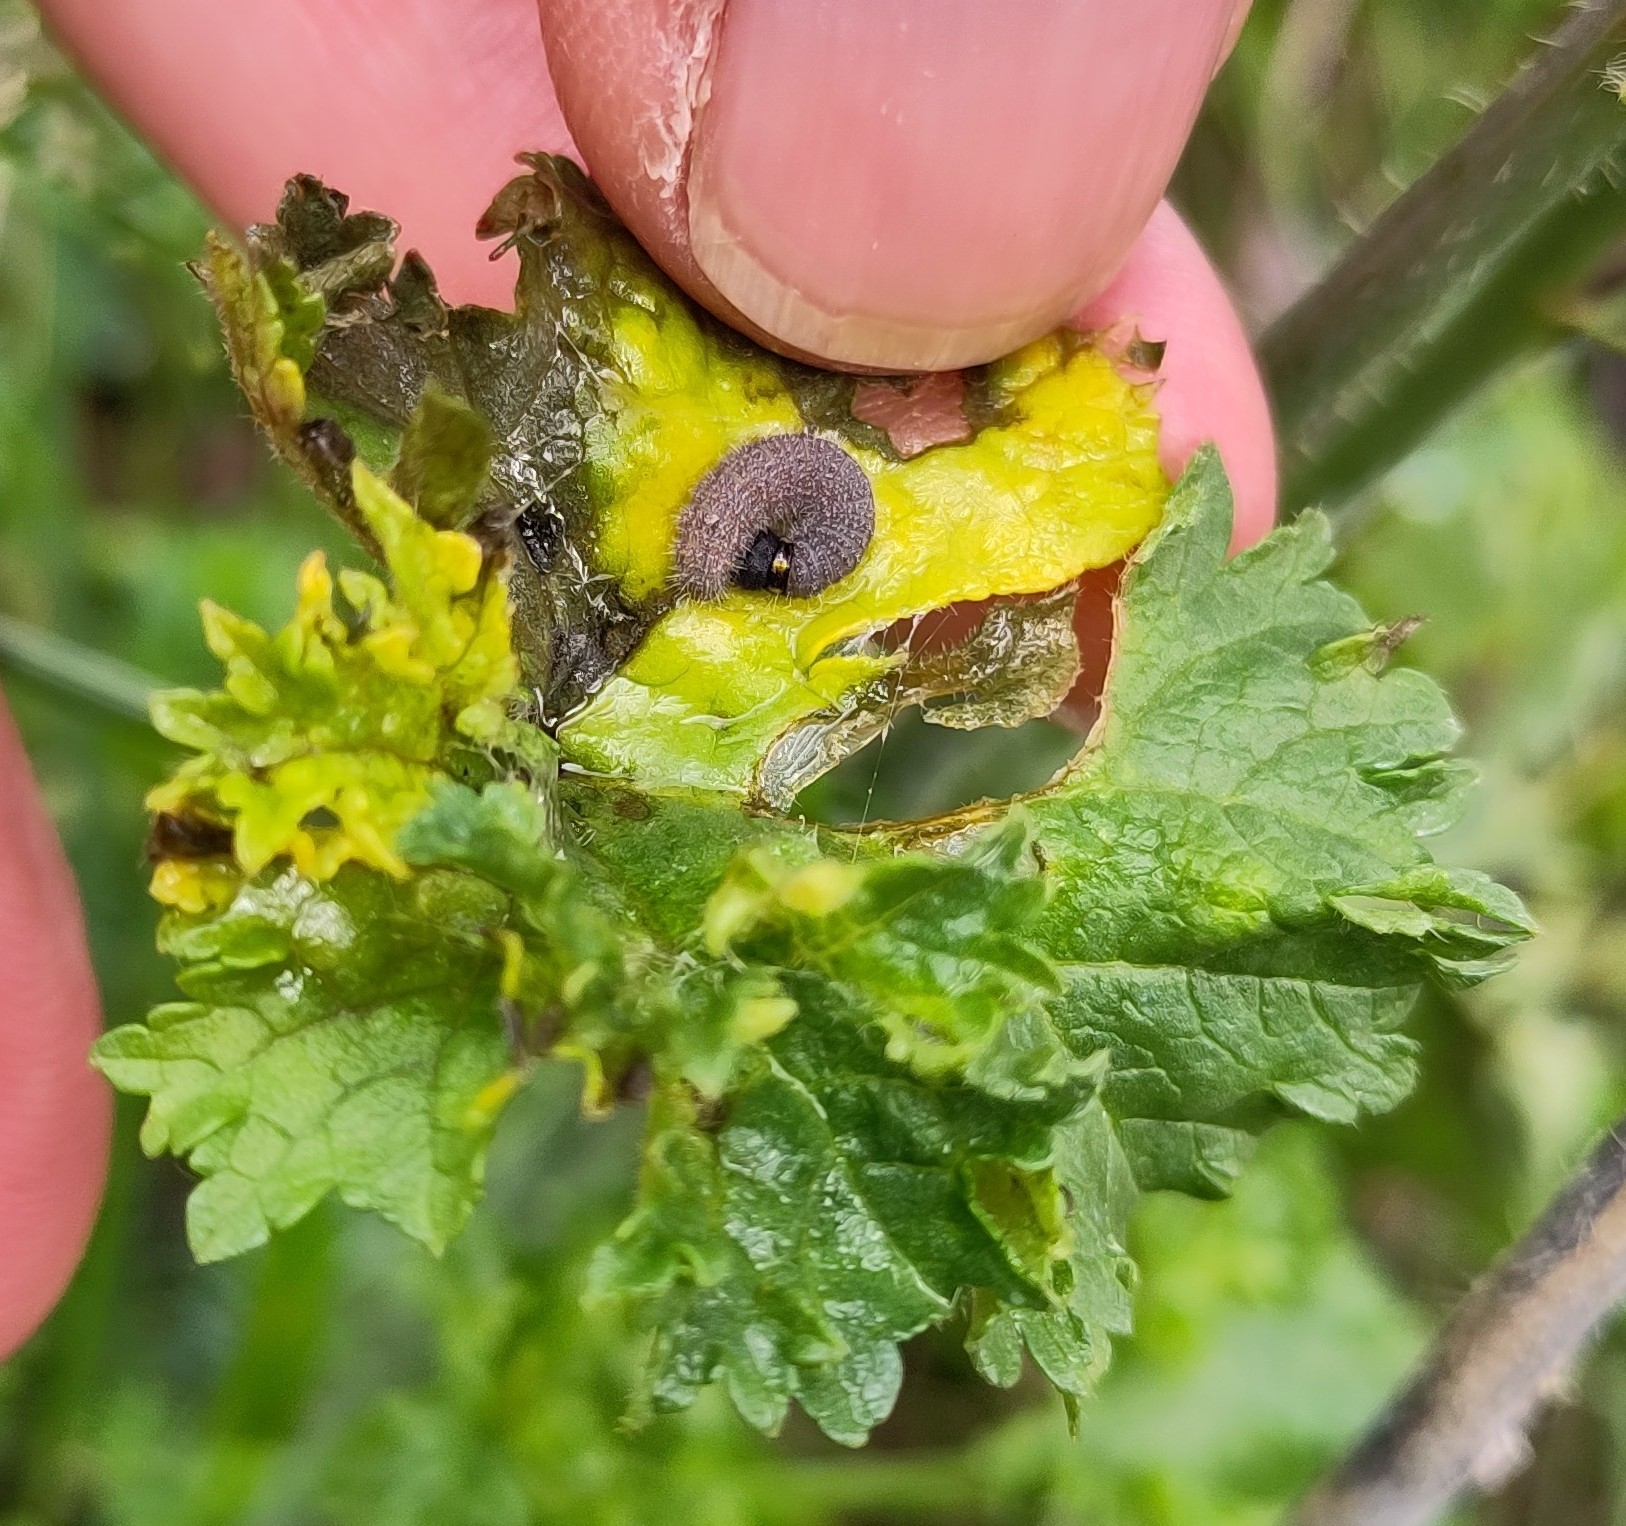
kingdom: Animalia
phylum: Arthropoda
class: Insecta
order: Lepidoptera
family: Hesperiidae
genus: Carcharodus
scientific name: Carcharodus alceae
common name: Mallow skipper
